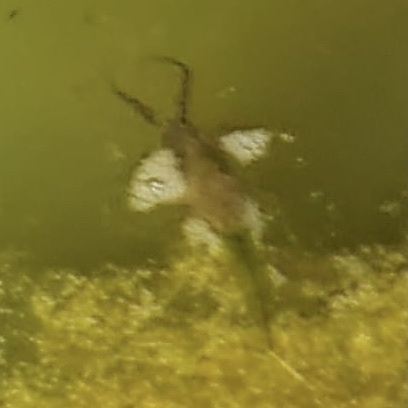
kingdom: Animalia
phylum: Arthropoda
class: Insecta
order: Hemiptera
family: Nepidae
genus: Laccotrephes
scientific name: Laccotrephes tristis
